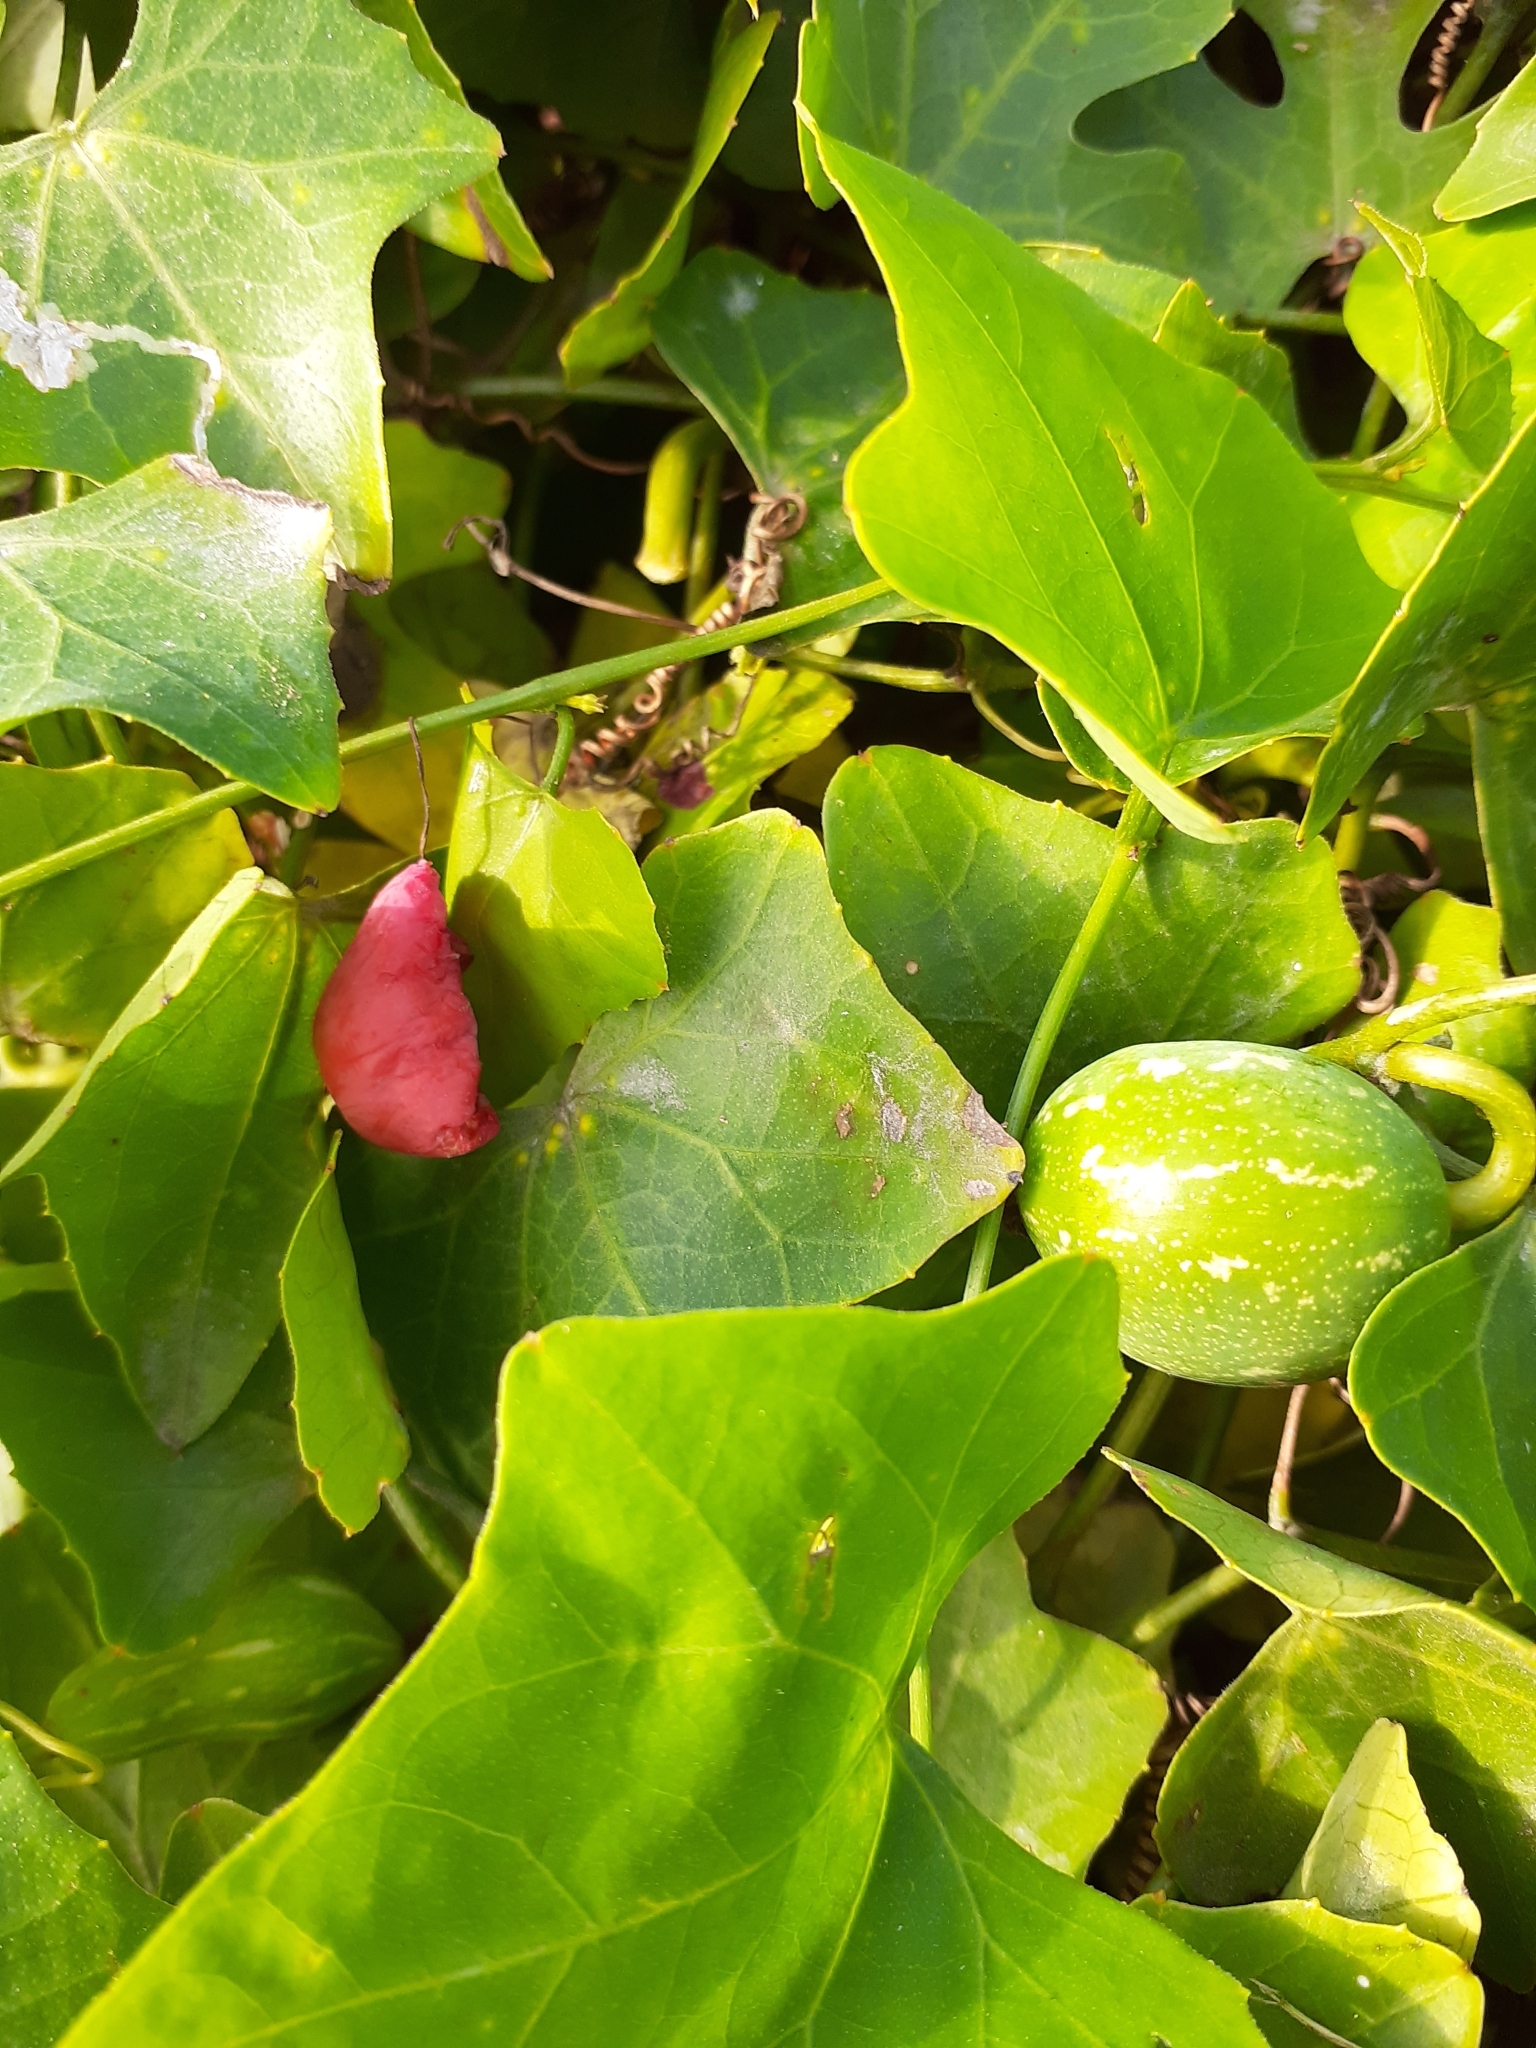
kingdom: Plantae
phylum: Tracheophyta
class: Magnoliopsida
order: Cucurbitales
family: Cucurbitaceae
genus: Coccinia
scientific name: Coccinia grandis
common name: Ivy gourd
